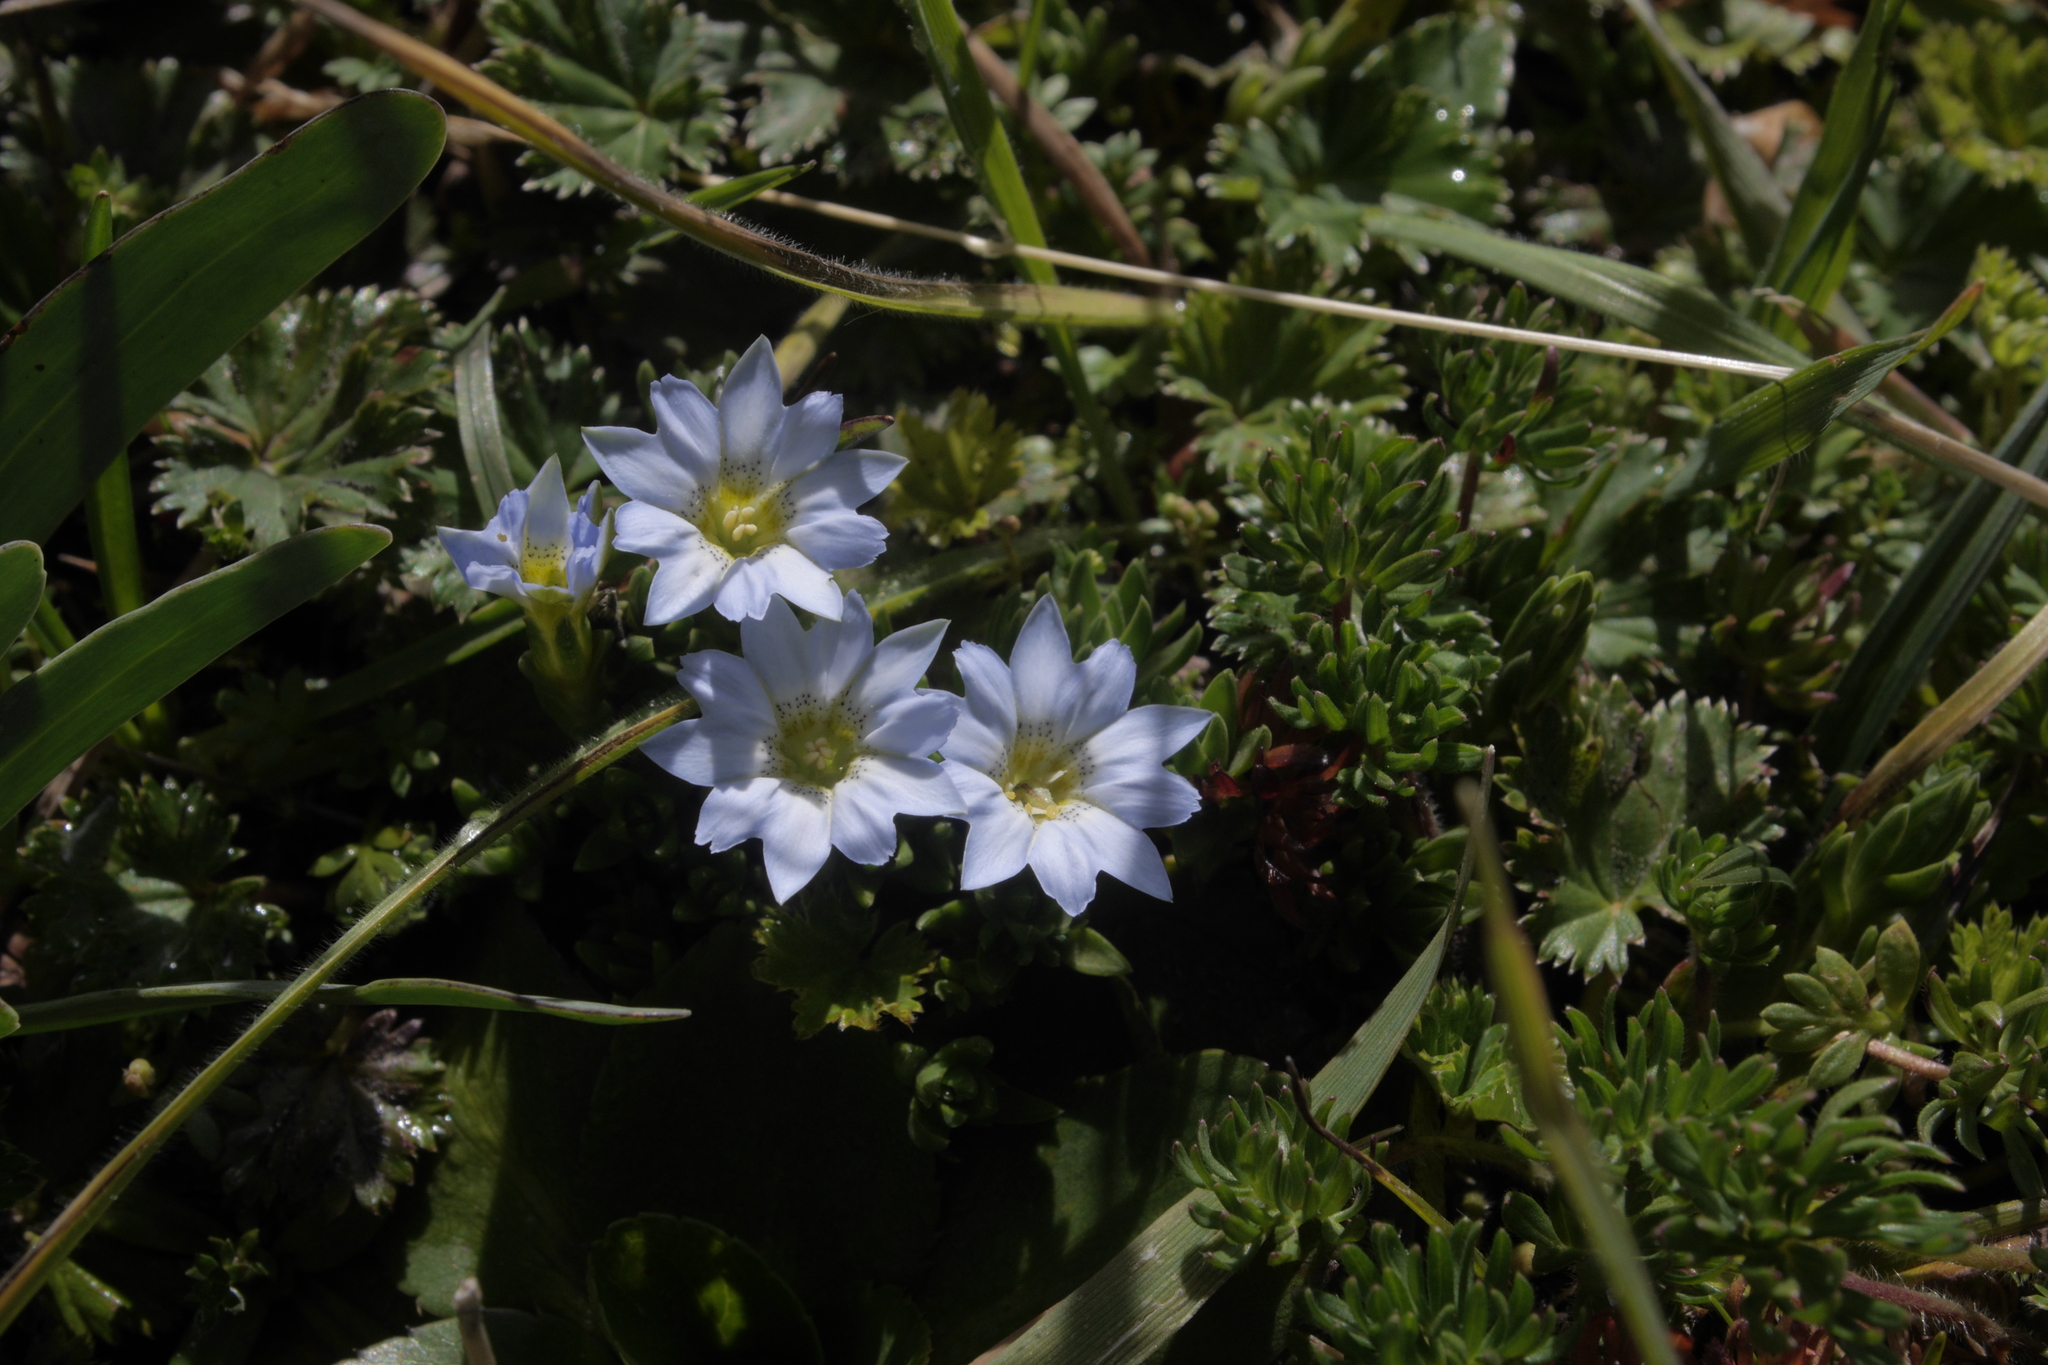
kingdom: Plantae
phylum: Tracheophyta
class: Magnoliopsida
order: Gentianales
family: Gentianaceae
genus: Gentiana
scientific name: Gentiana sedifolia
